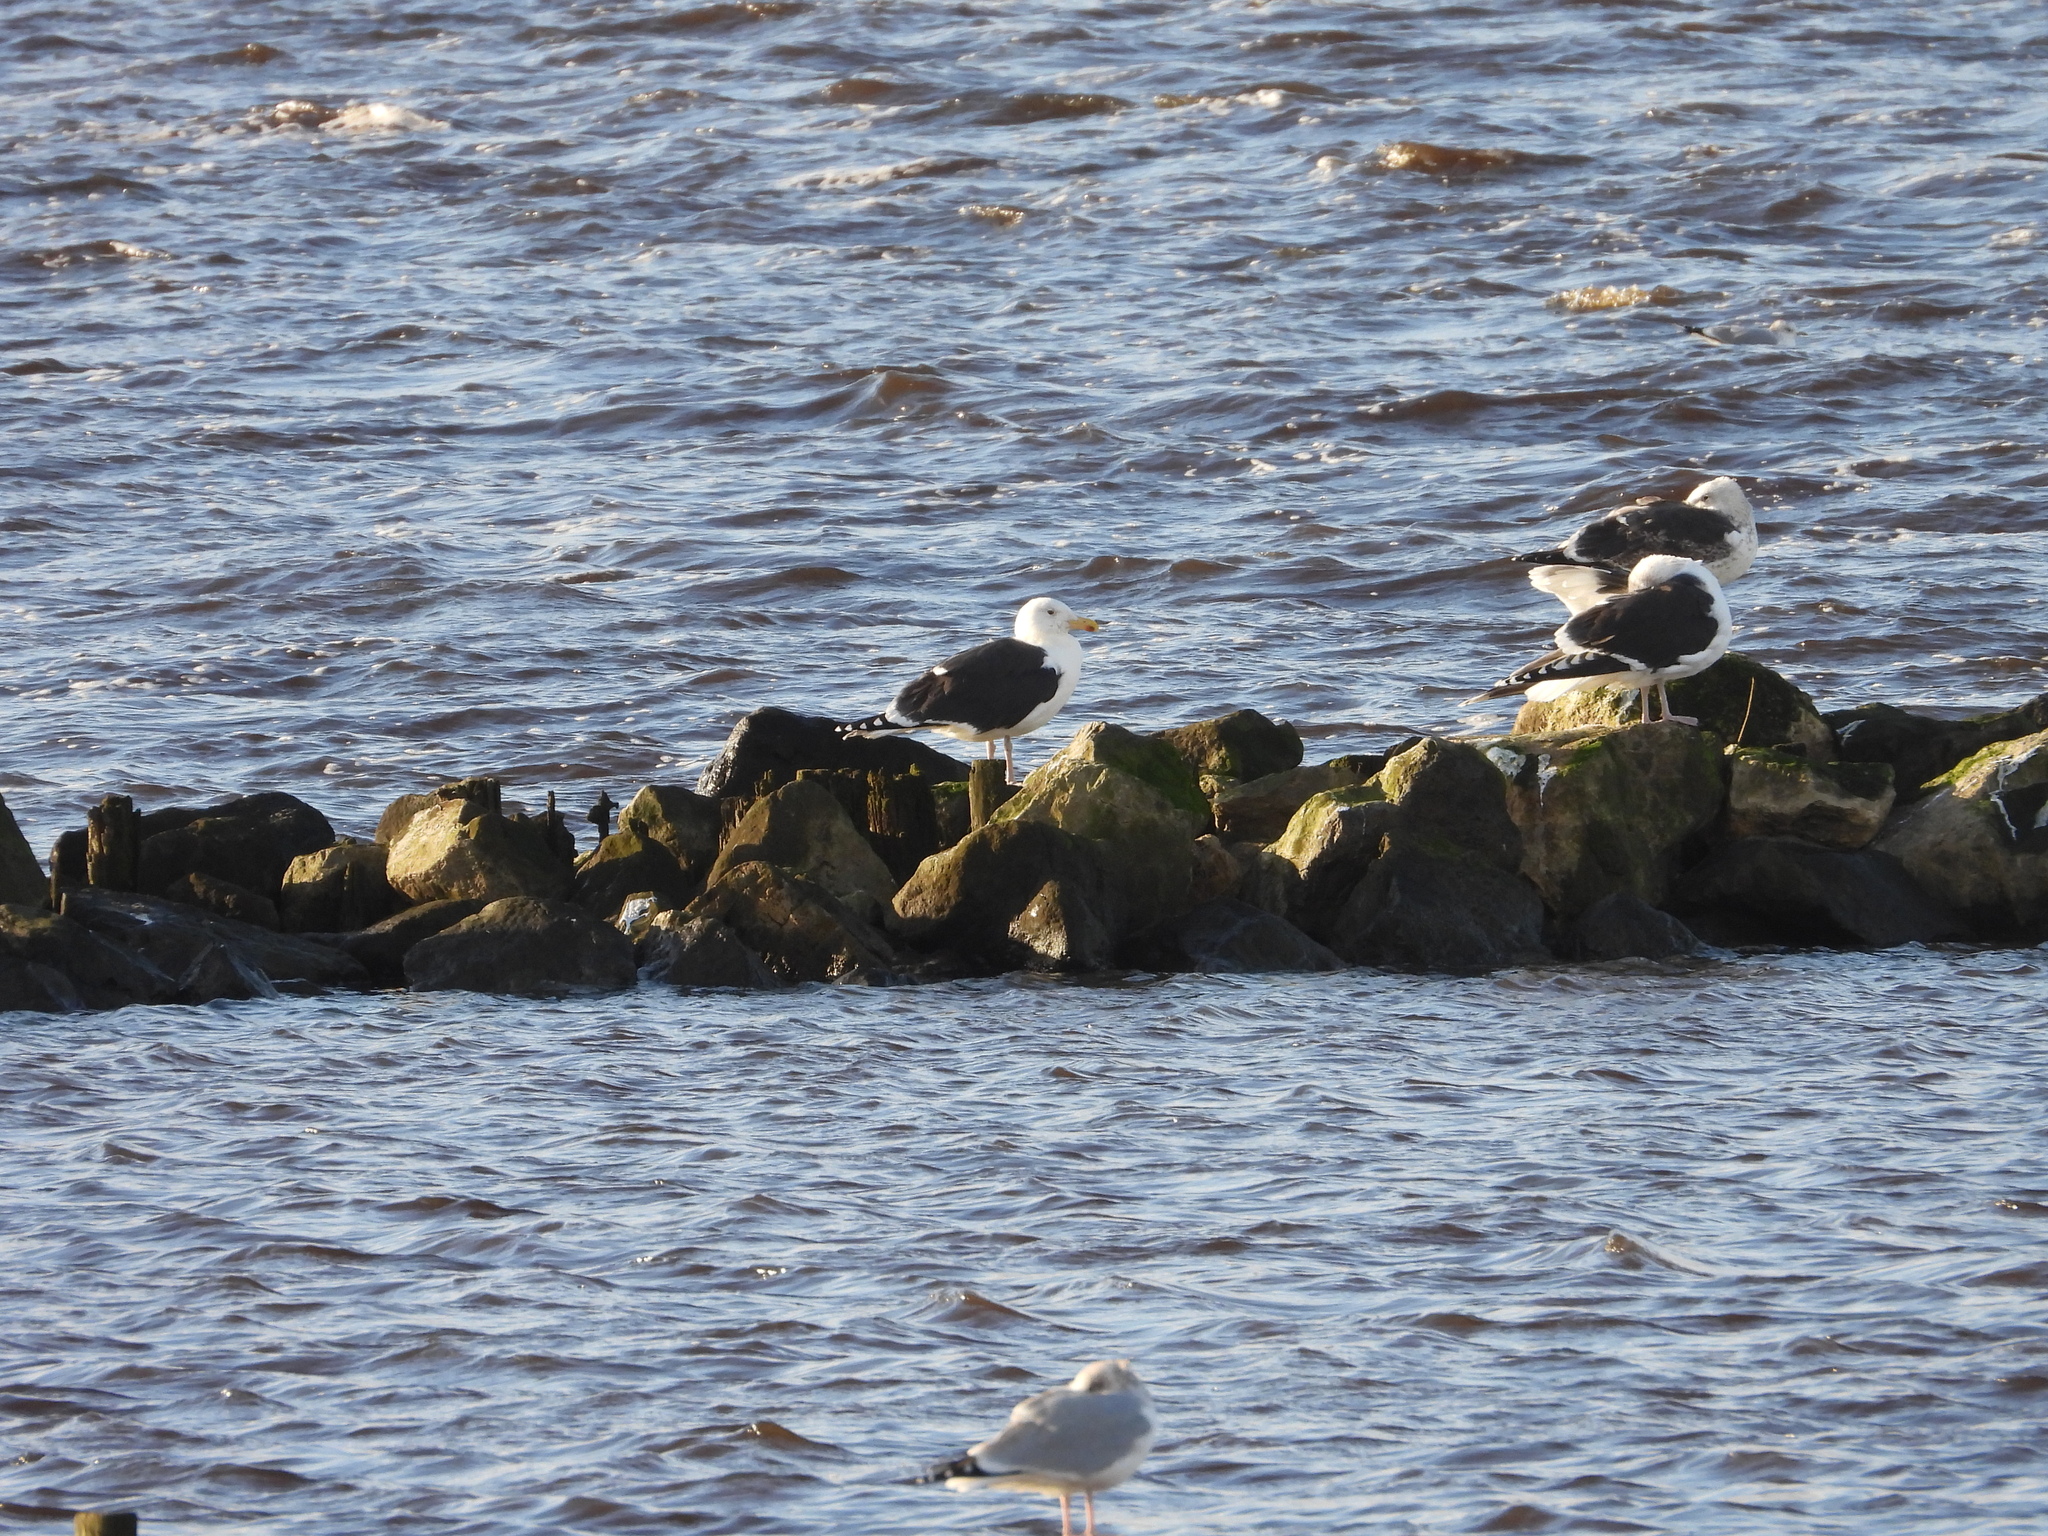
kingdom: Animalia
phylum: Chordata
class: Aves
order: Charadriiformes
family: Laridae
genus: Larus
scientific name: Larus marinus
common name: Great black-backed gull
